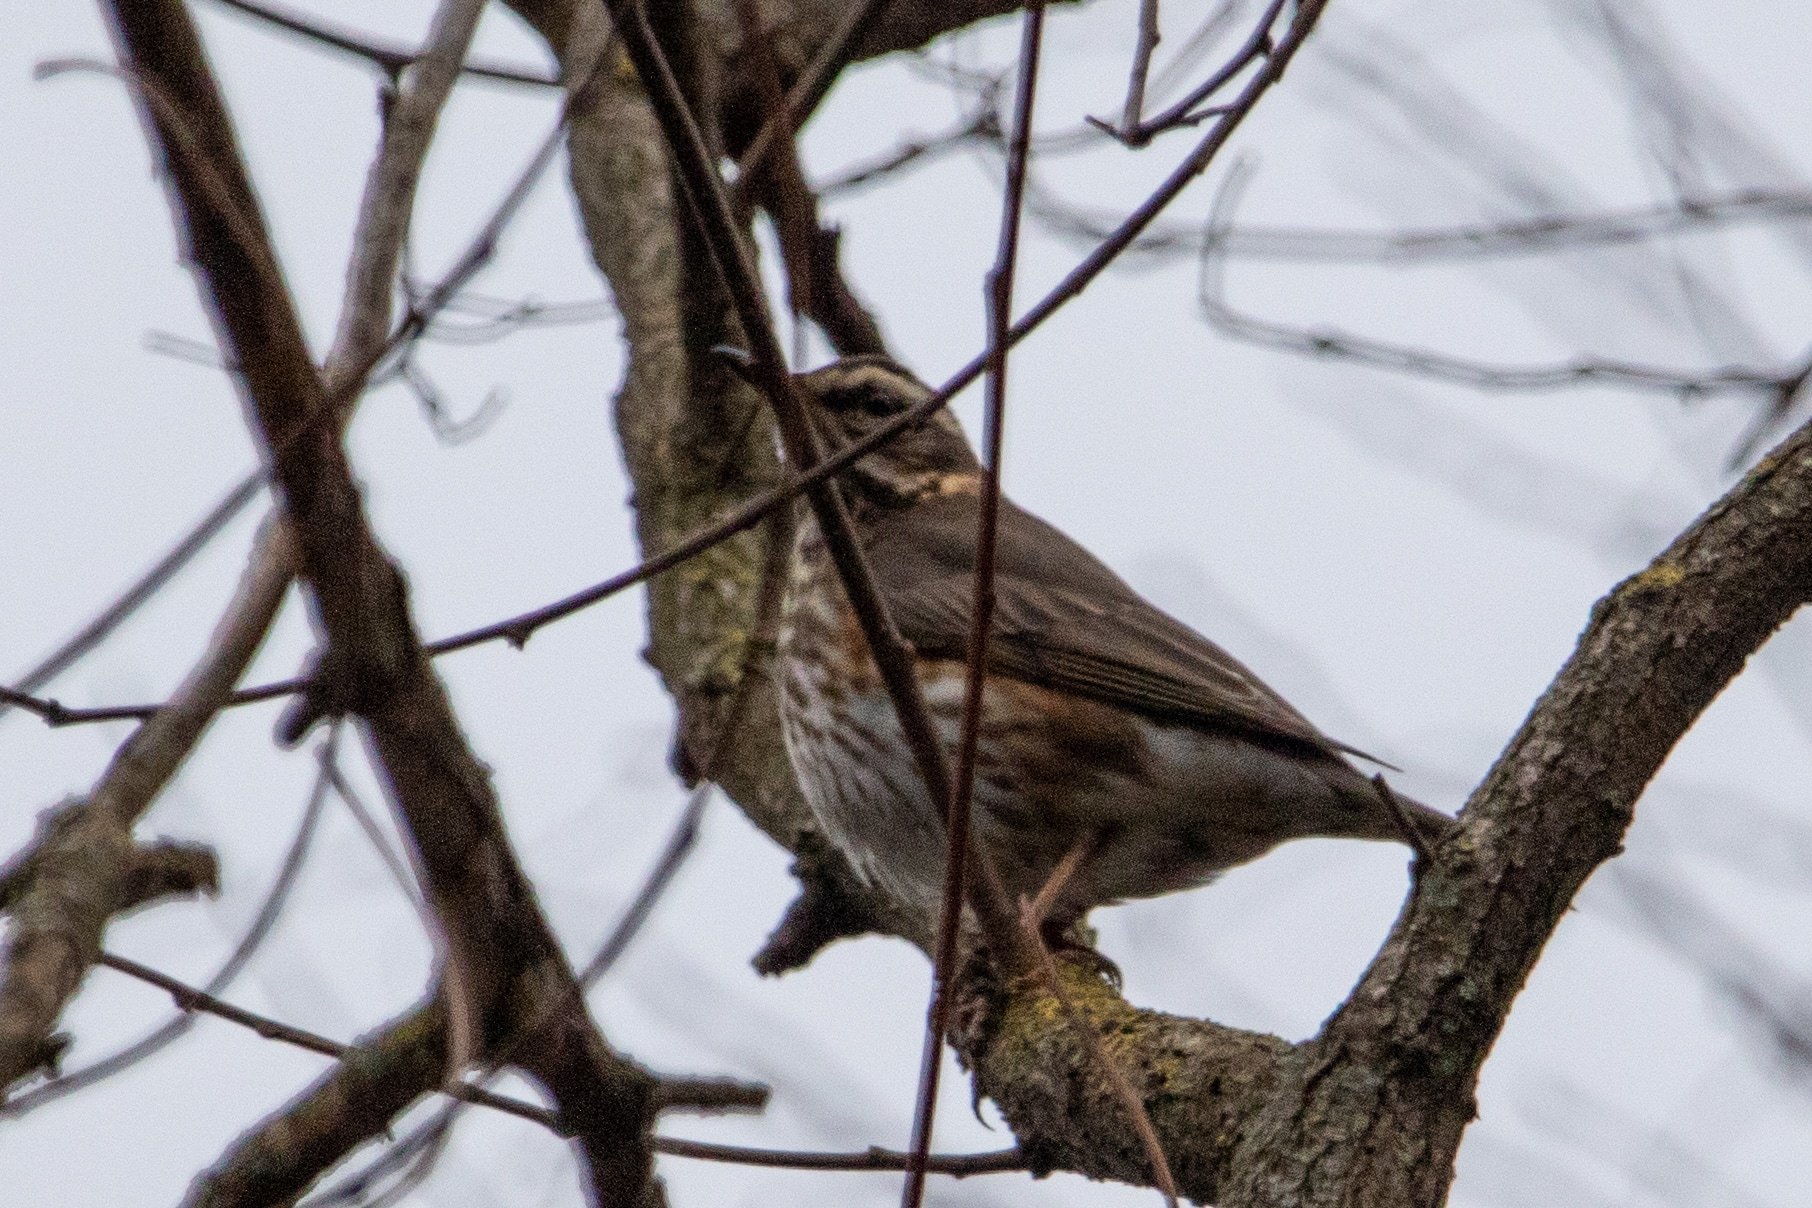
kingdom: Animalia
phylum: Chordata
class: Aves
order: Passeriformes
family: Turdidae
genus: Turdus
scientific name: Turdus iliacus
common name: Redwing
